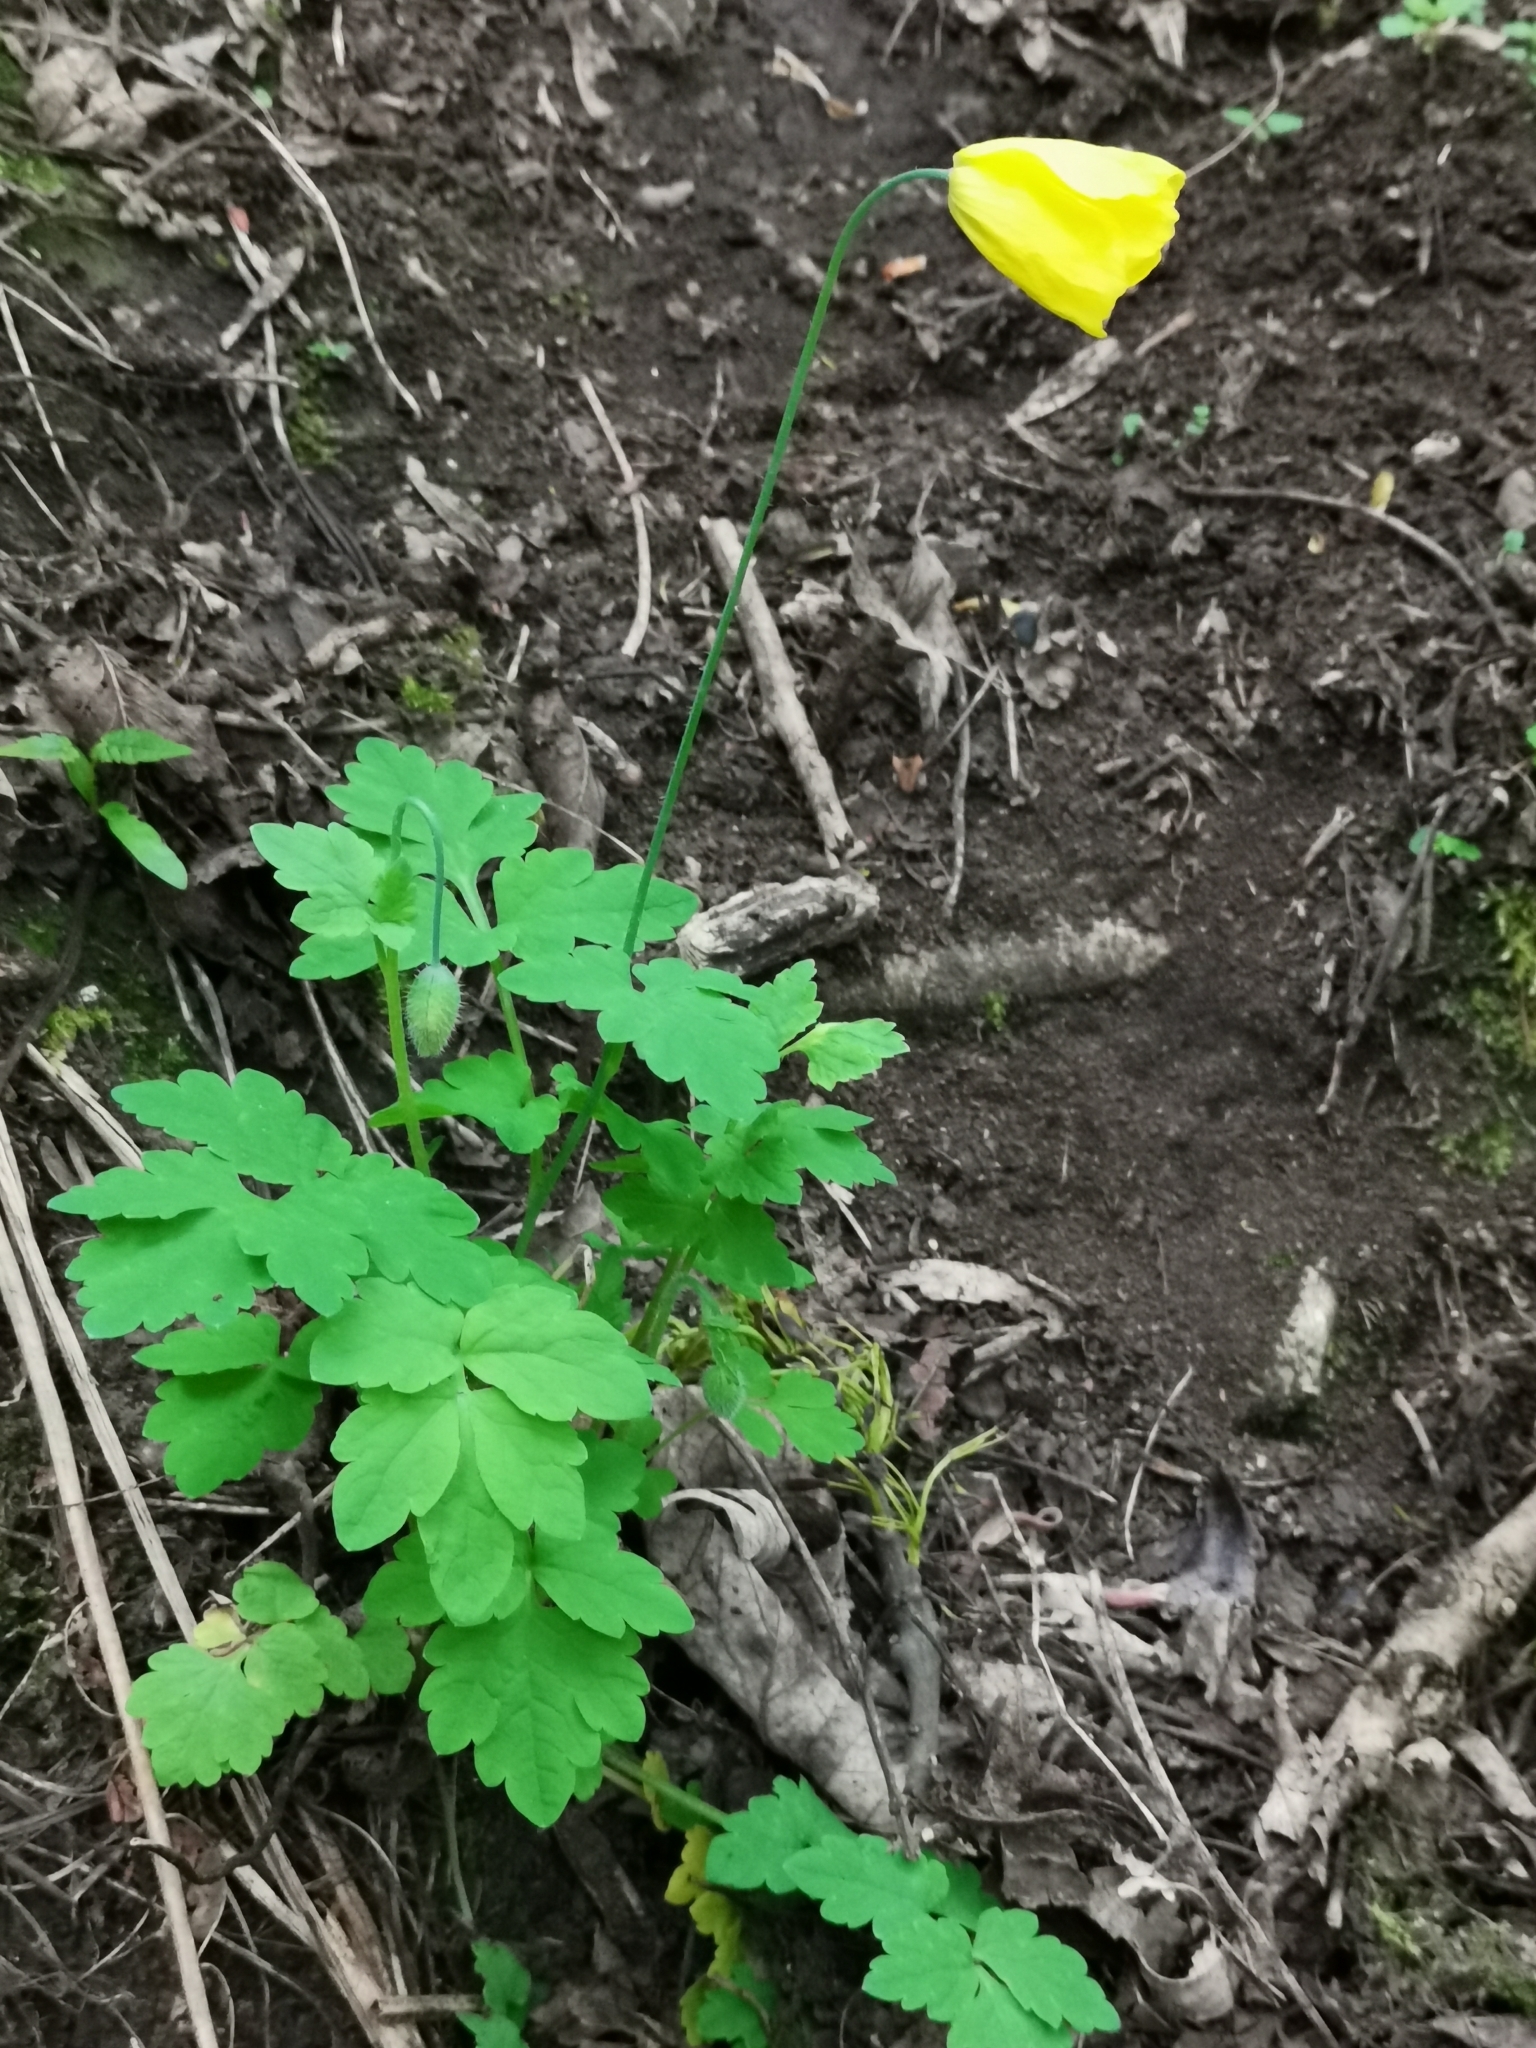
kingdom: Plantae
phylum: Tracheophyta
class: Magnoliopsida
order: Ranunculales
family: Papaveraceae
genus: Papaver
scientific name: Papaver cambricum
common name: Poppy
